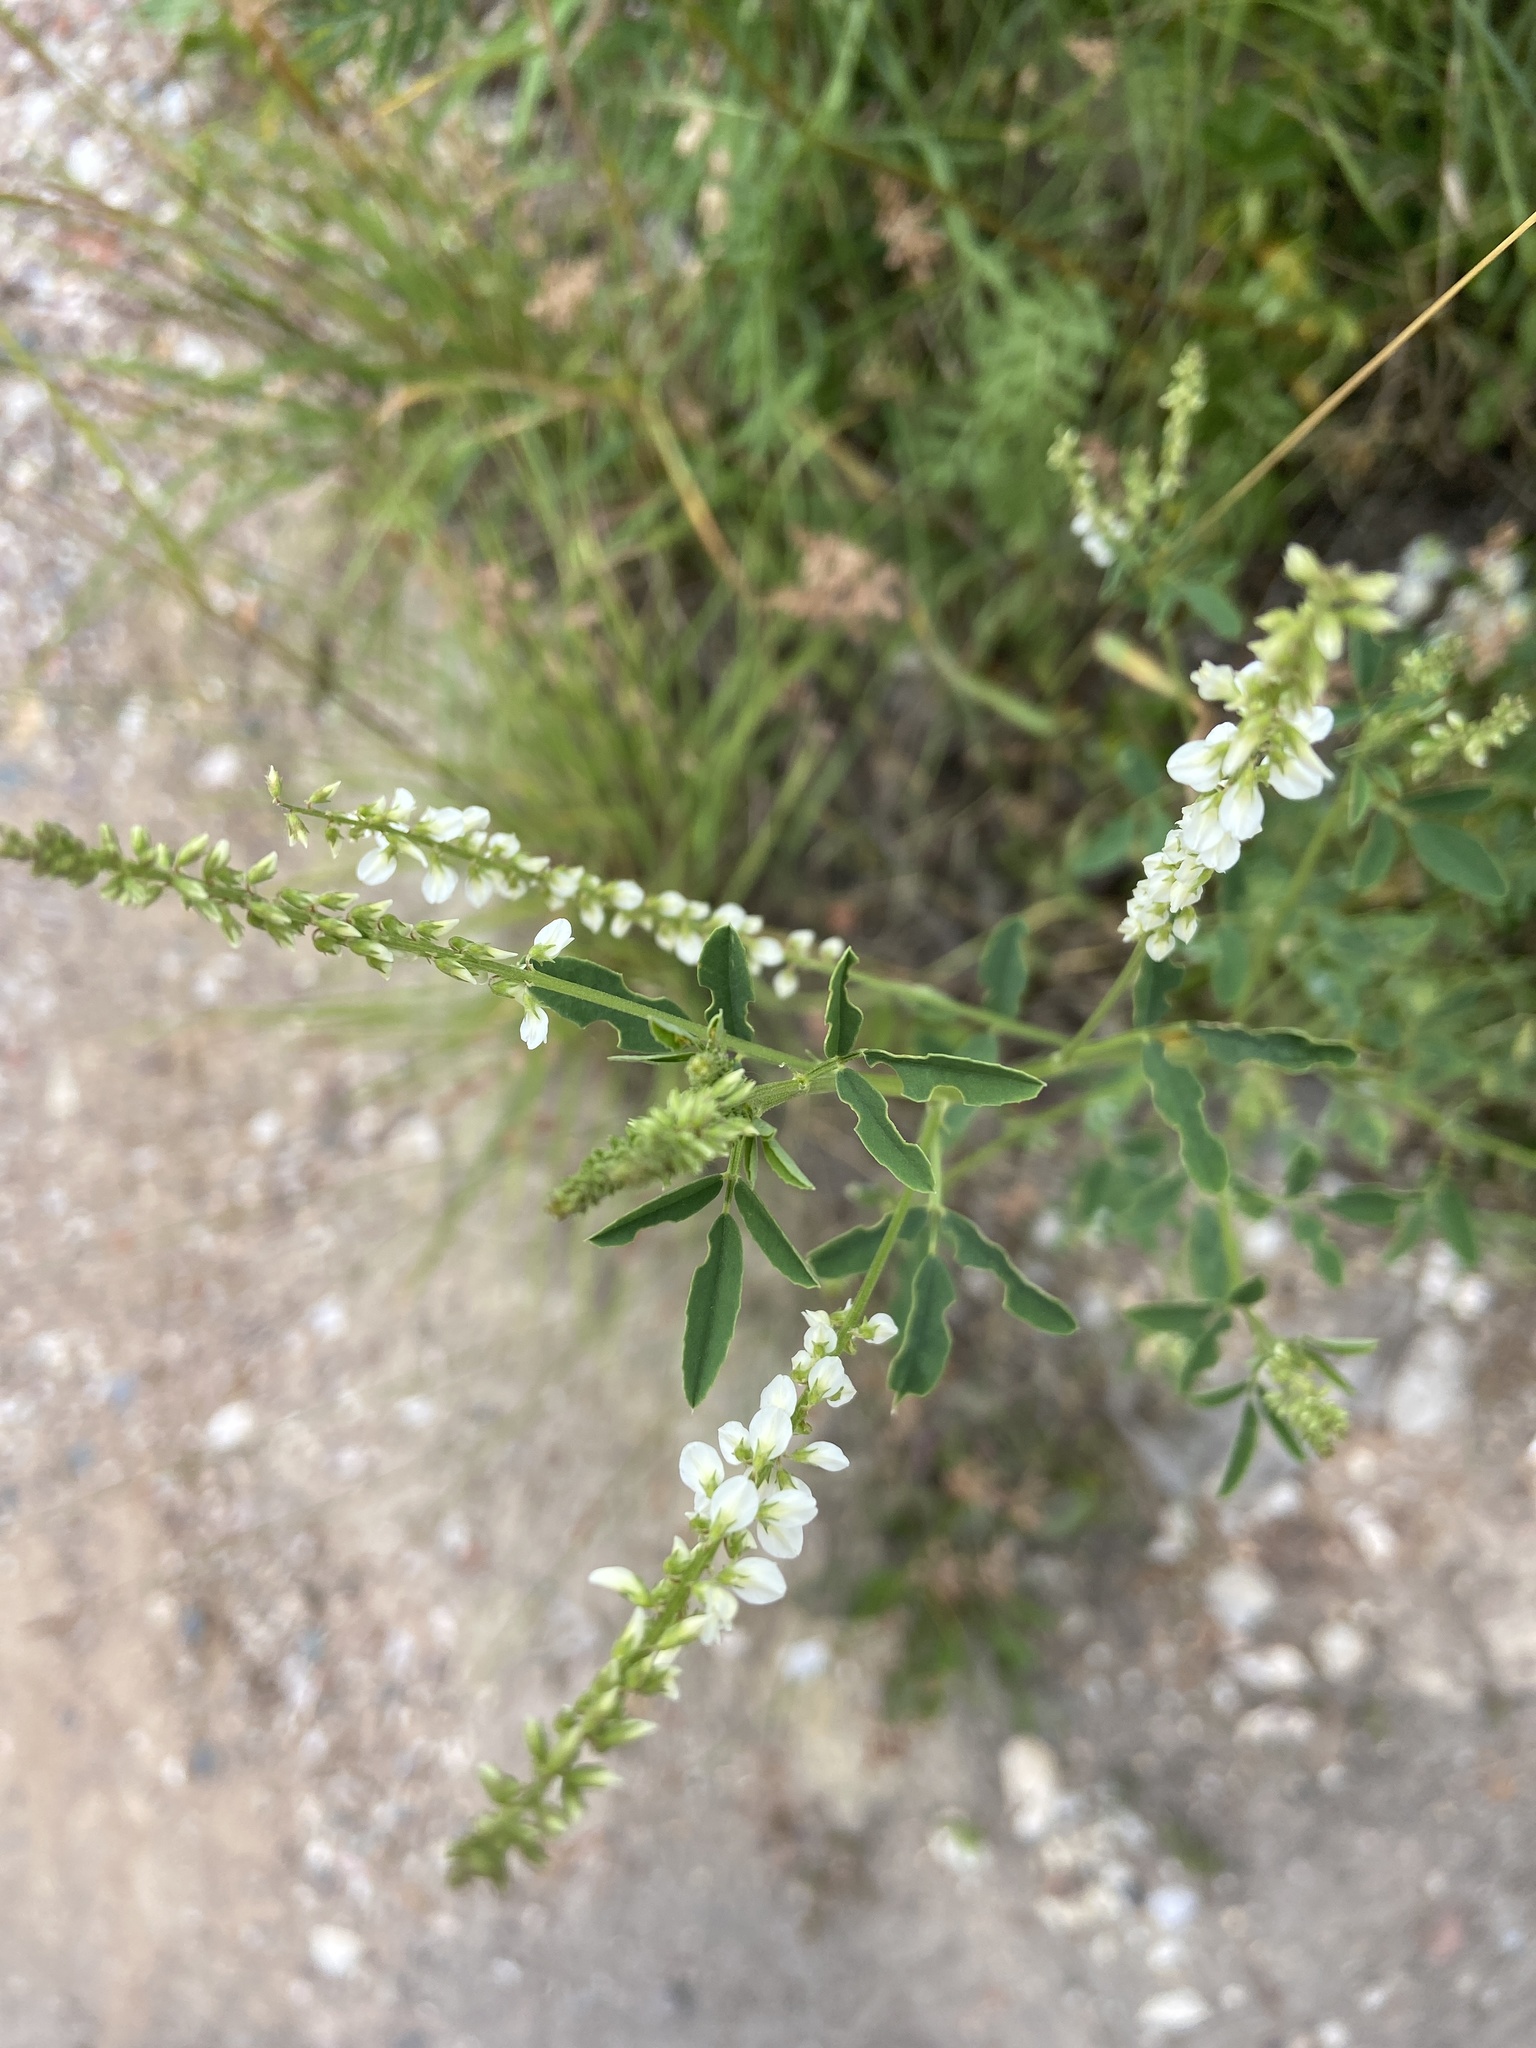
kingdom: Plantae
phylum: Tracheophyta
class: Magnoliopsida
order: Fabales
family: Fabaceae
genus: Melilotus
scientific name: Melilotus albus
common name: White melilot
